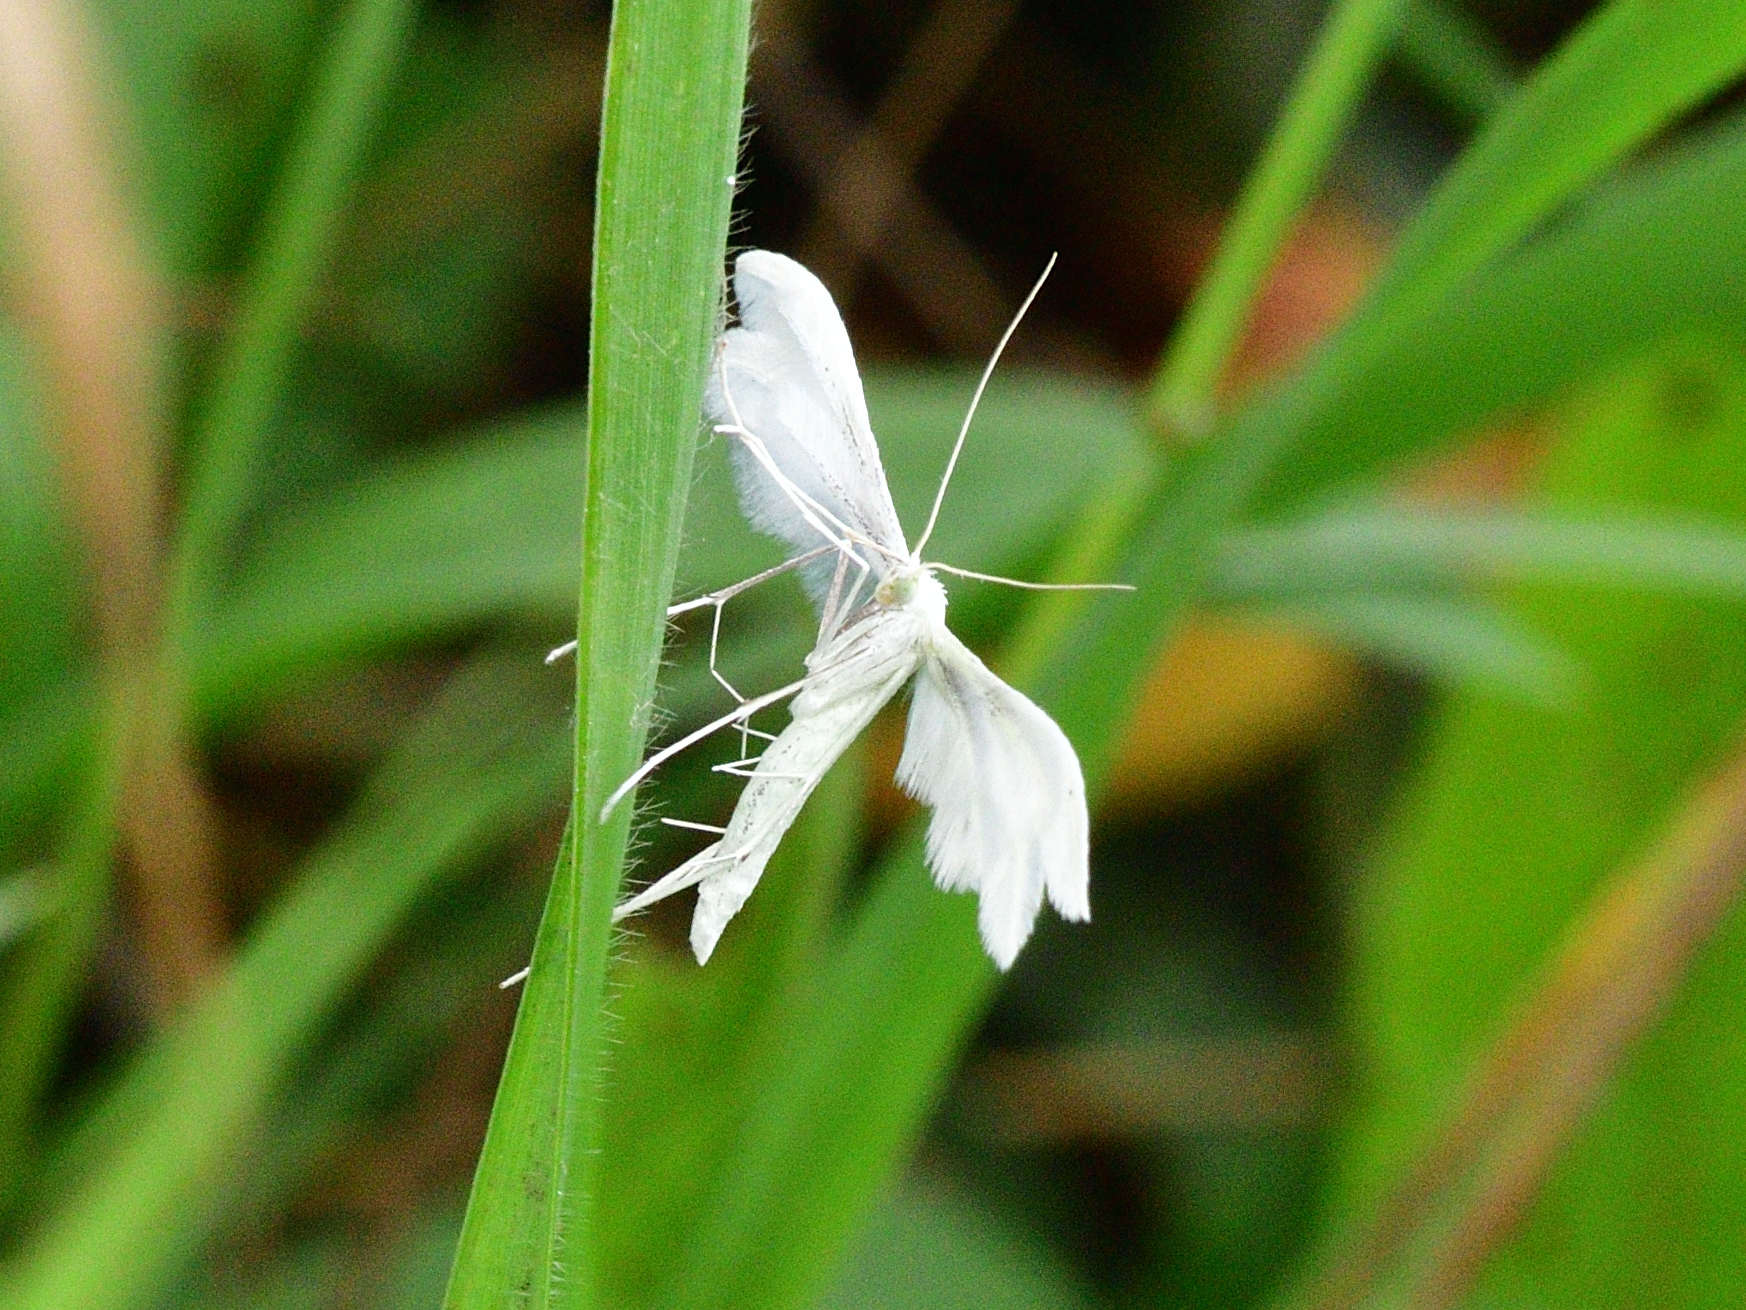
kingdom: Animalia
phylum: Arthropoda
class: Insecta
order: Lepidoptera
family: Pterophoridae
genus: Pterophorus
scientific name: Pterophorus pentadactyla
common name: White plume moth
